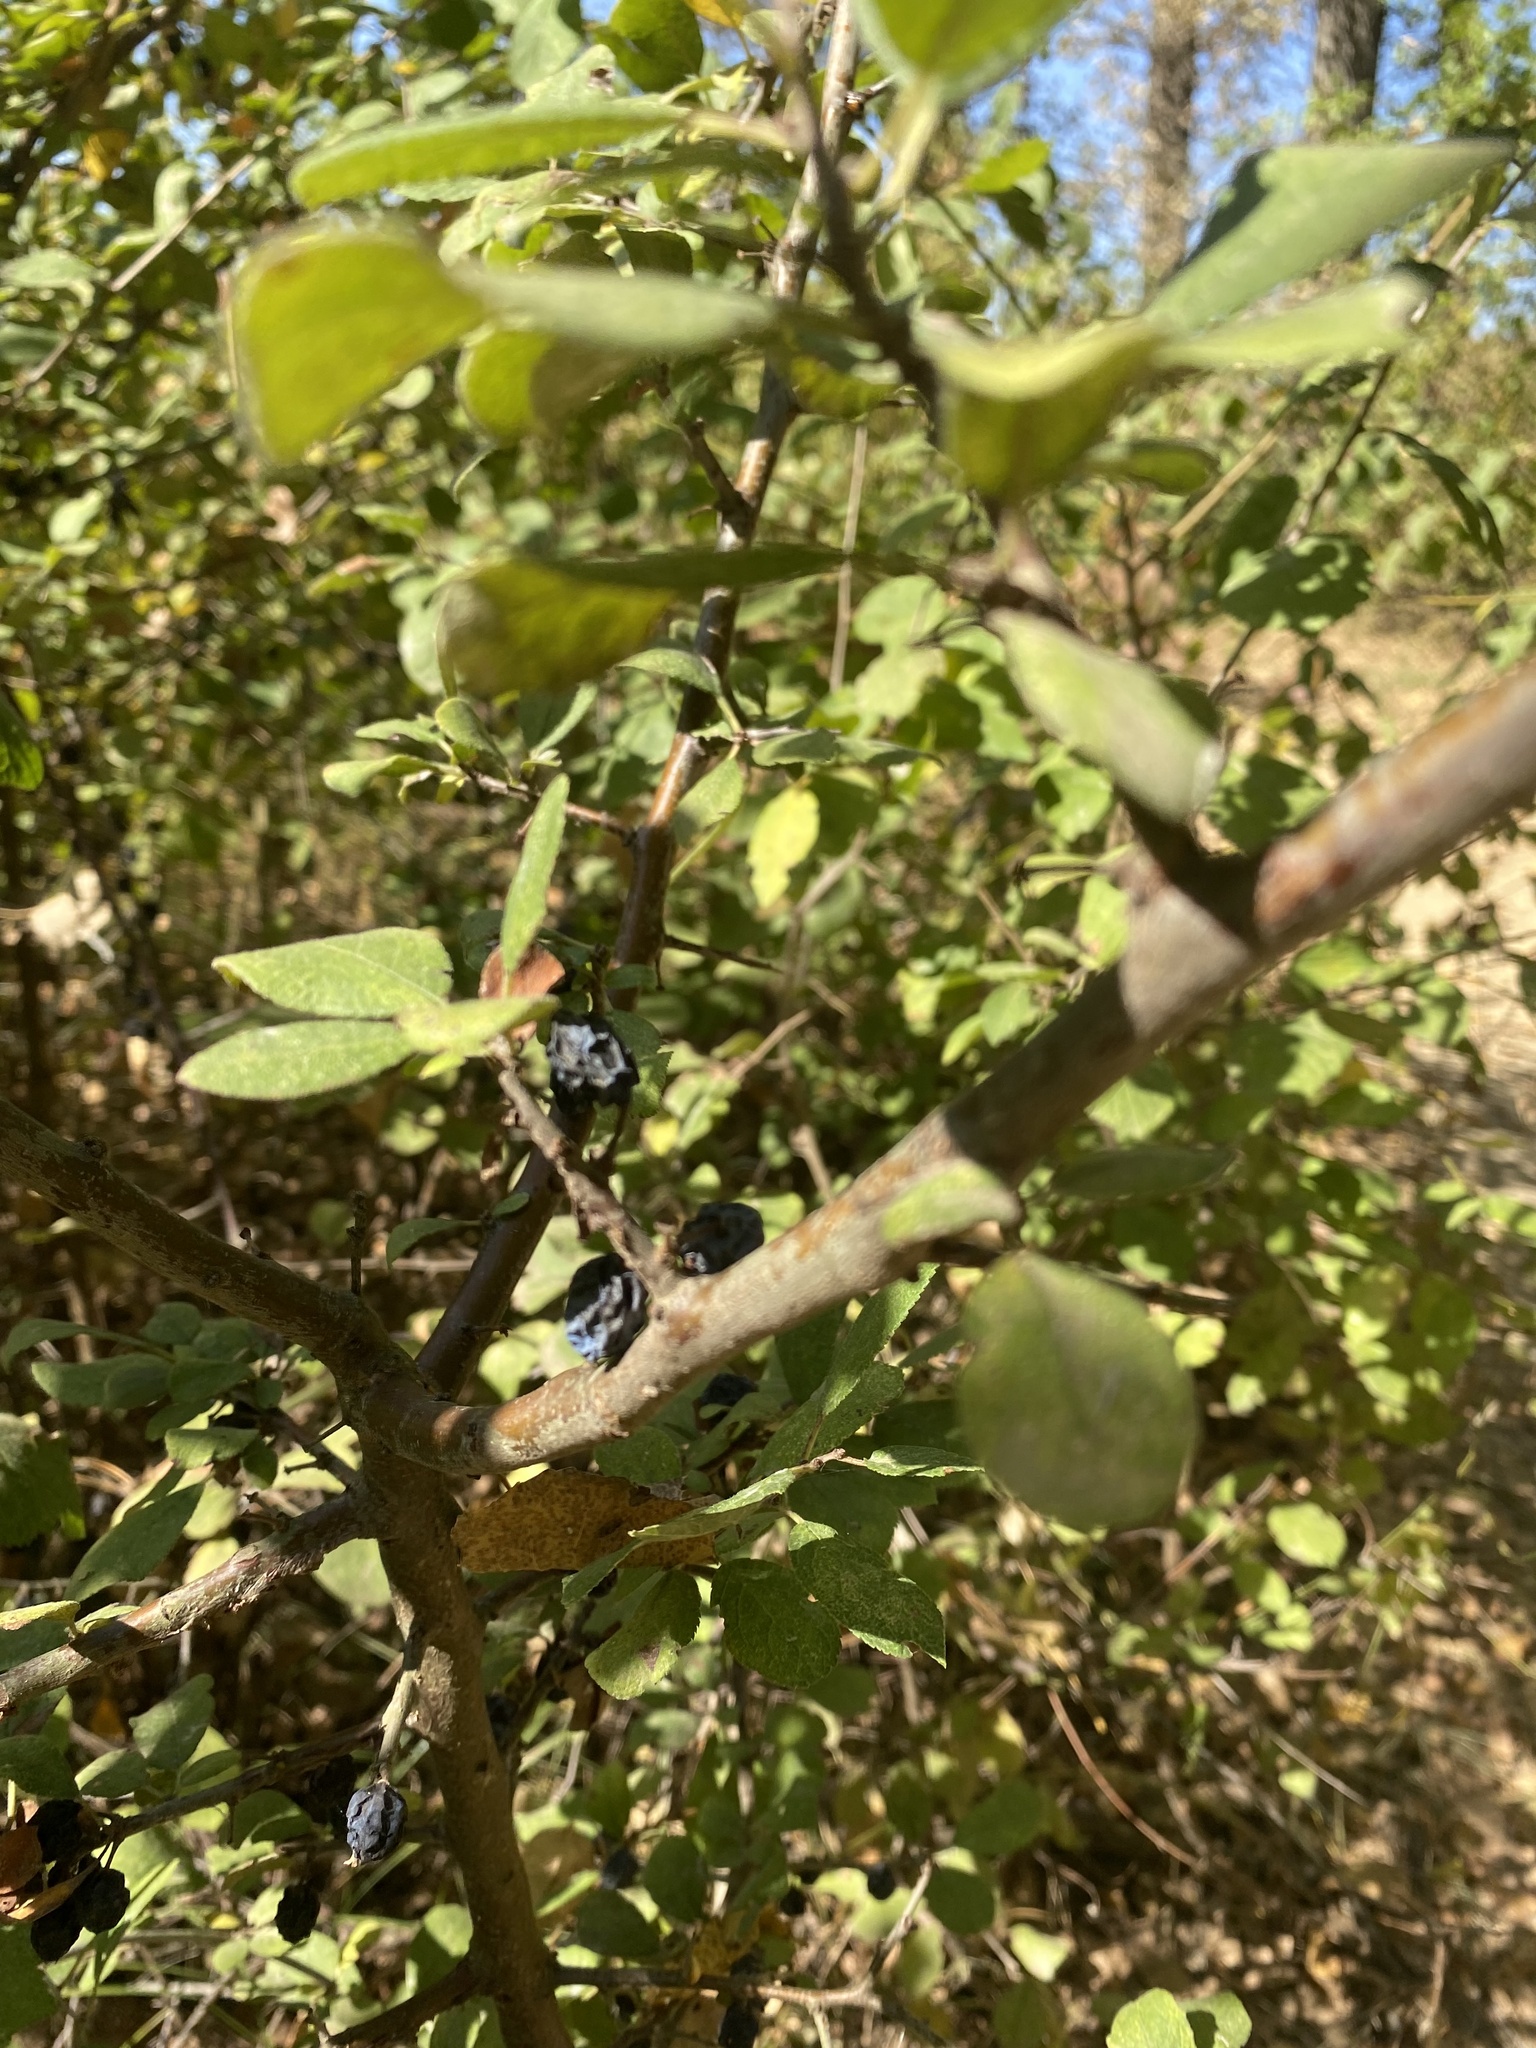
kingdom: Plantae
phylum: Tracheophyta
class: Magnoliopsida
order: Rosales
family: Rosaceae
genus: Prunus
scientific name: Prunus spinosa
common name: Blackthorn
